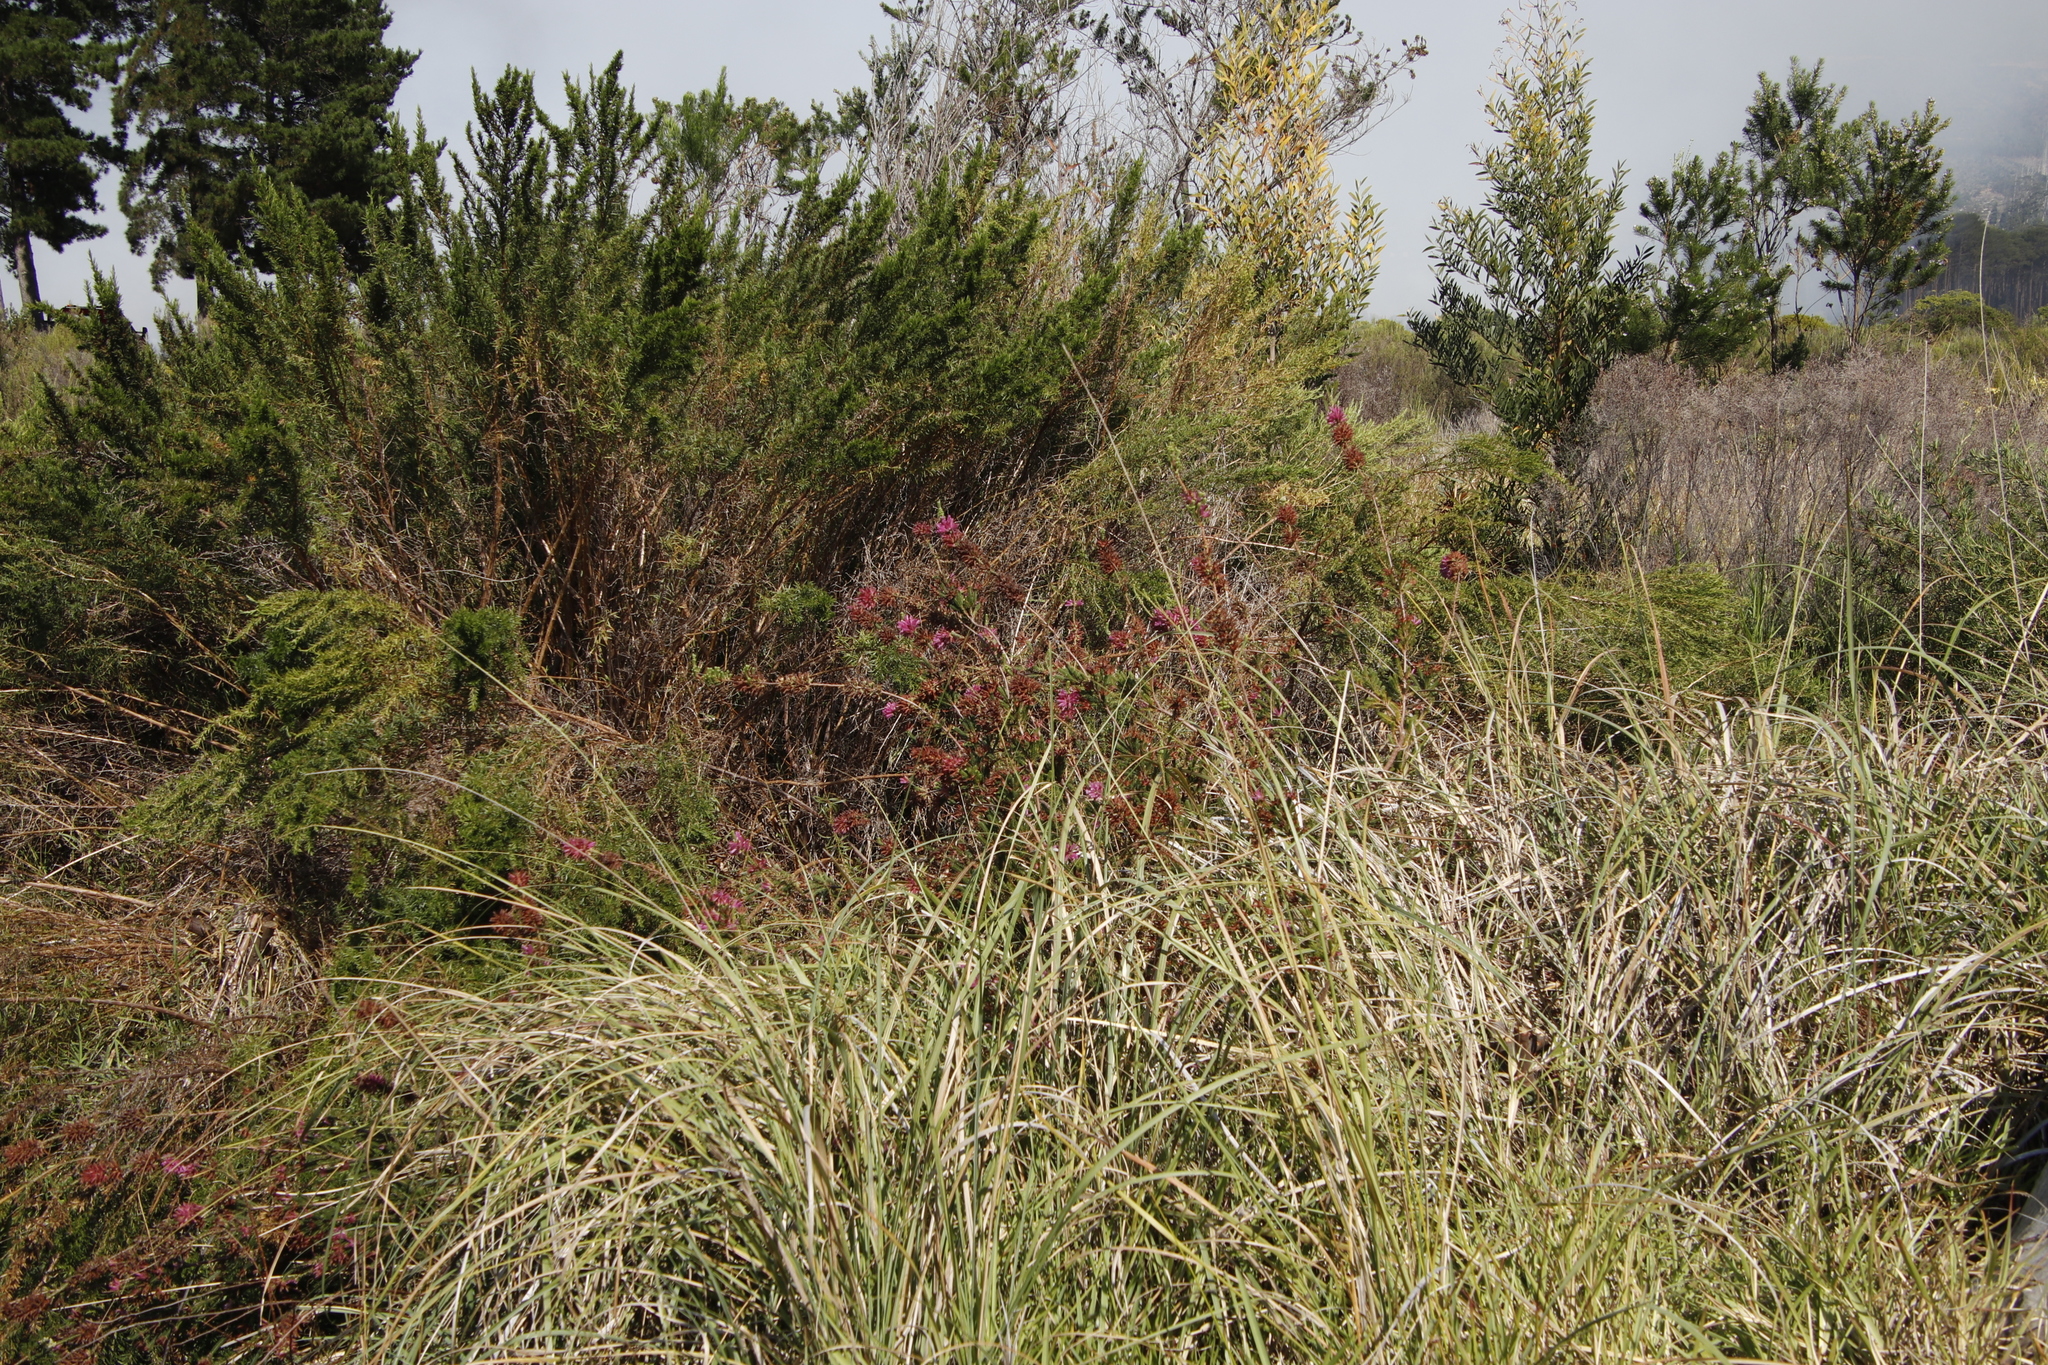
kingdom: Plantae
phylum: Tracheophyta
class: Magnoliopsida
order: Ericales
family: Ericaceae
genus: Erica
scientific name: Erica verticillata
